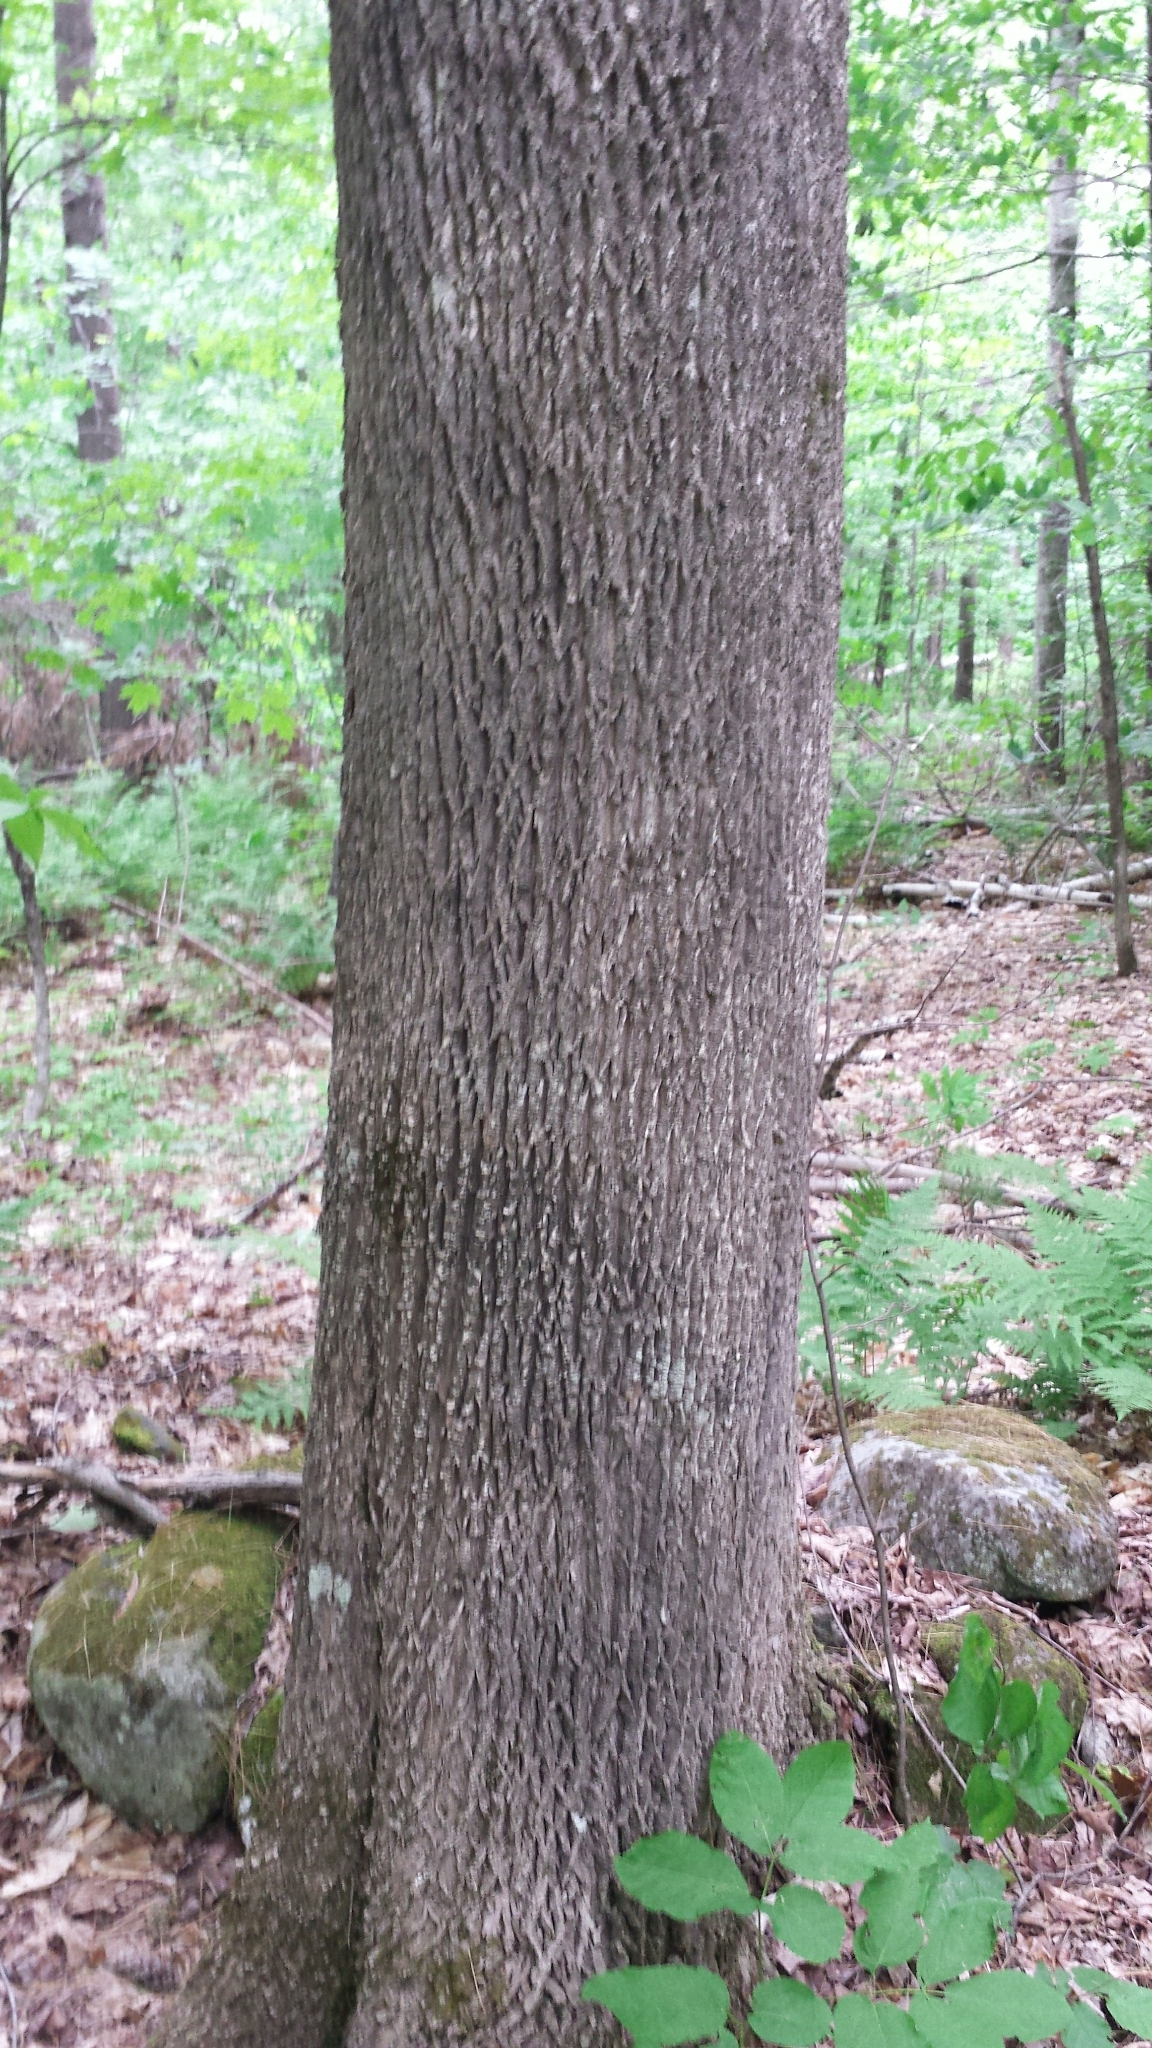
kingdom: Plantae
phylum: Tracheophyta
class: Magnoliopsida
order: Lamiales
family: Oleaceae
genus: Fraxinus
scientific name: Fraxinus americana
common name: White ash
